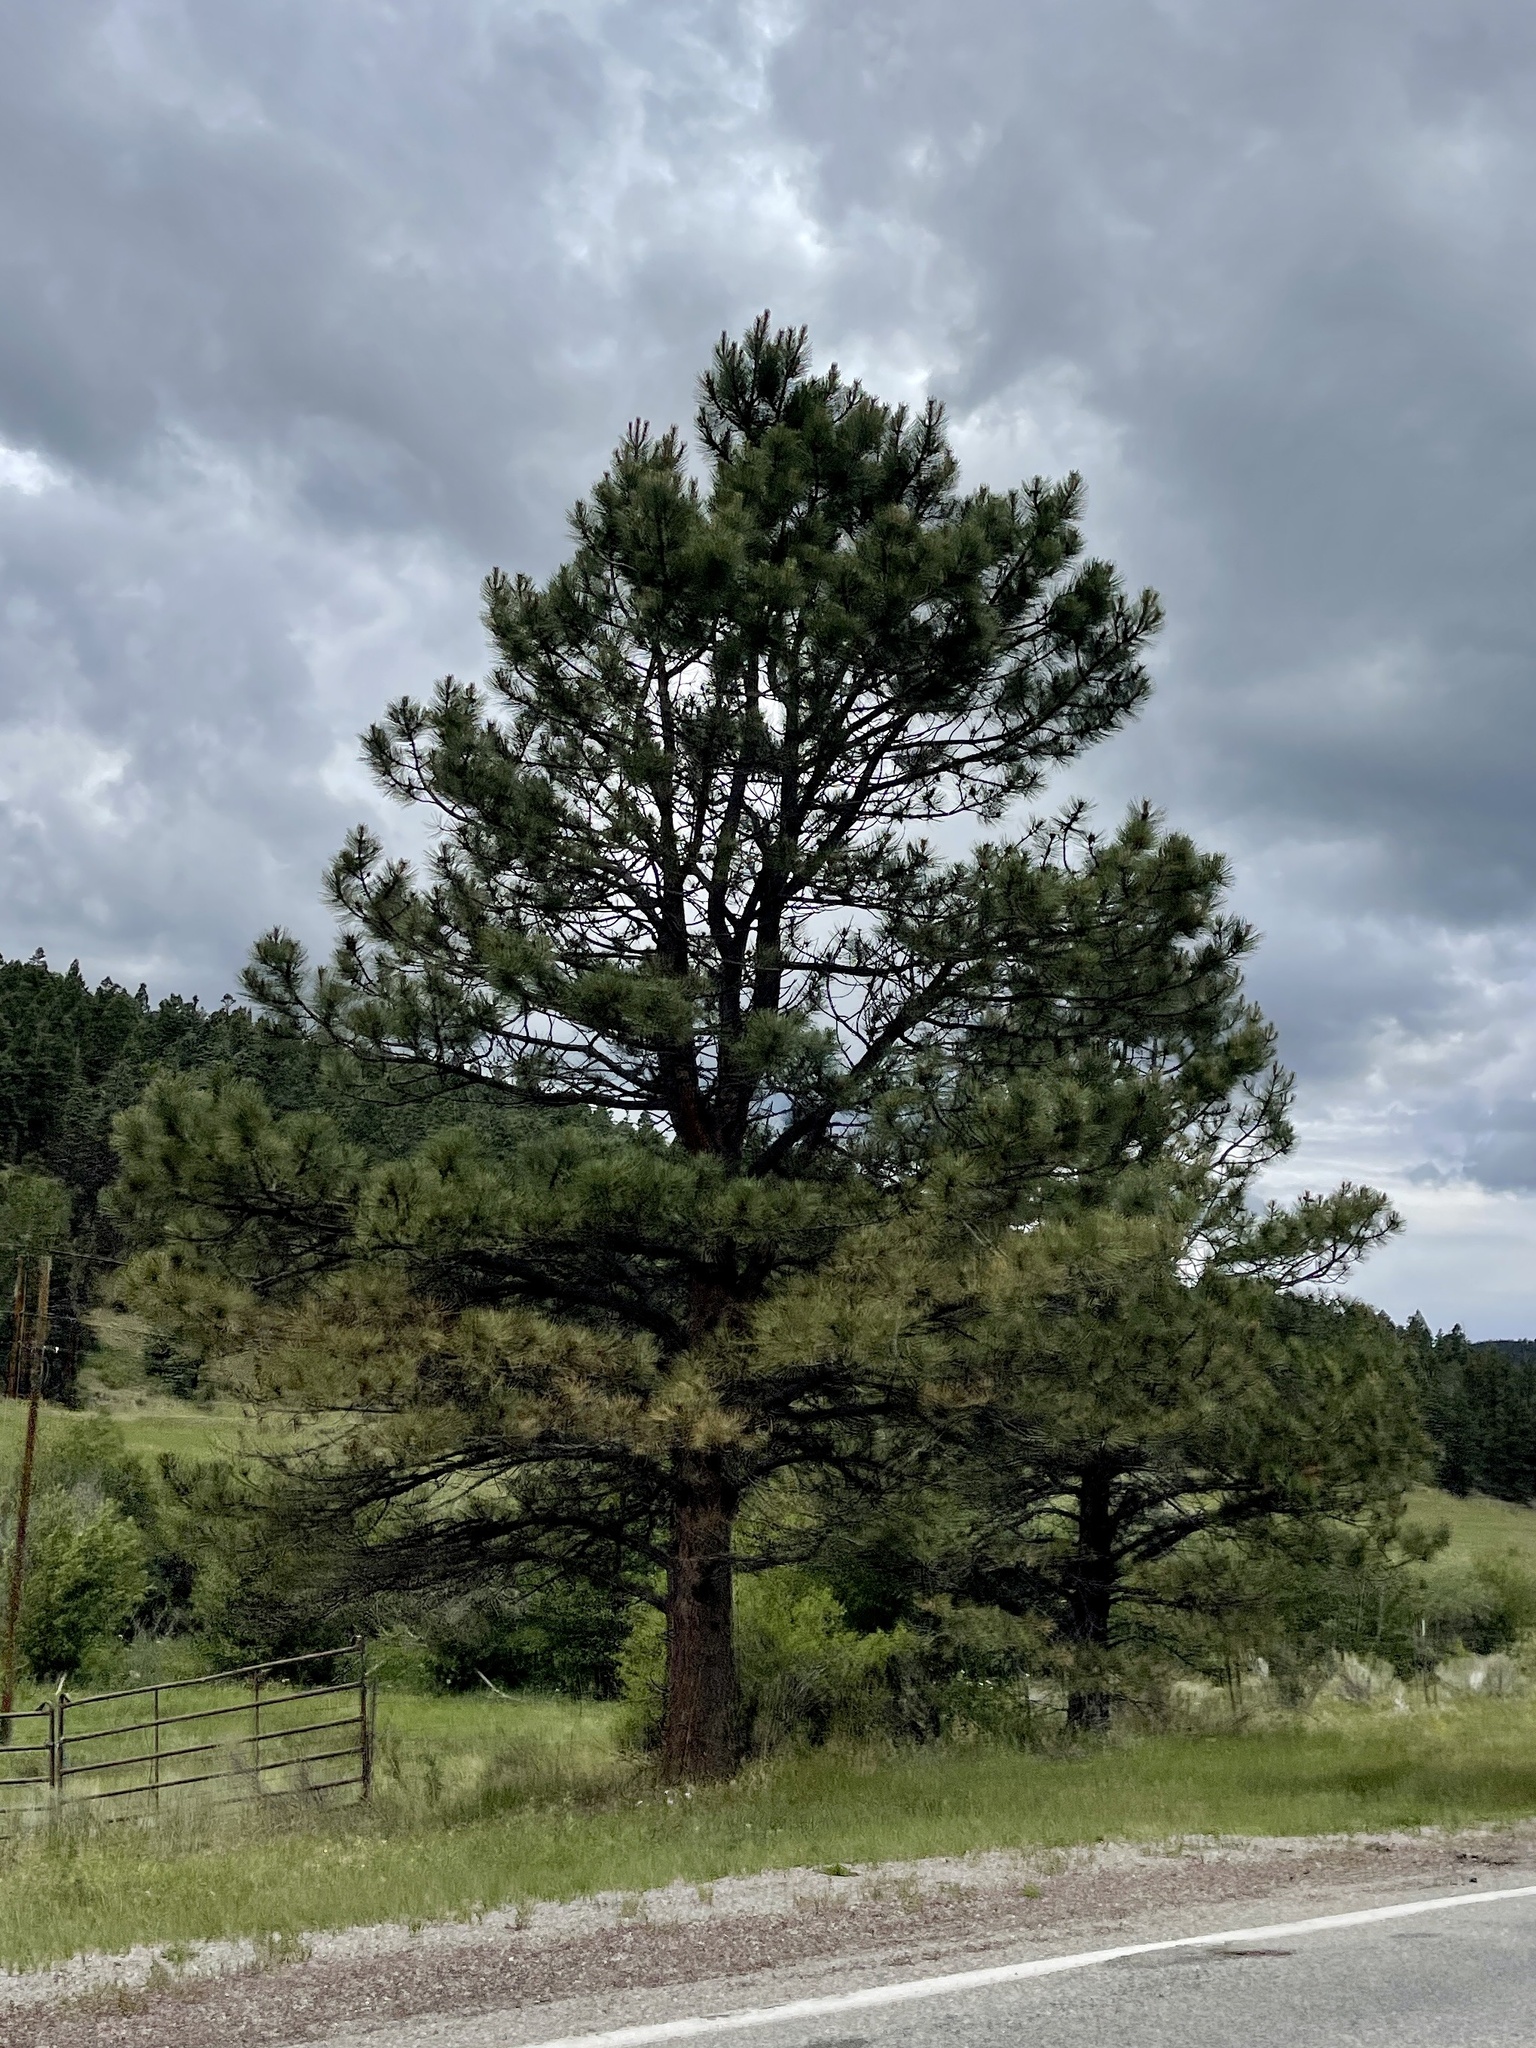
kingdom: Plantae
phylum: Tracheophyta
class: Pinopsida
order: Pinales
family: Pinaceae
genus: Pinus
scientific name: Pinus ponderosa
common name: Western yellow-pine
